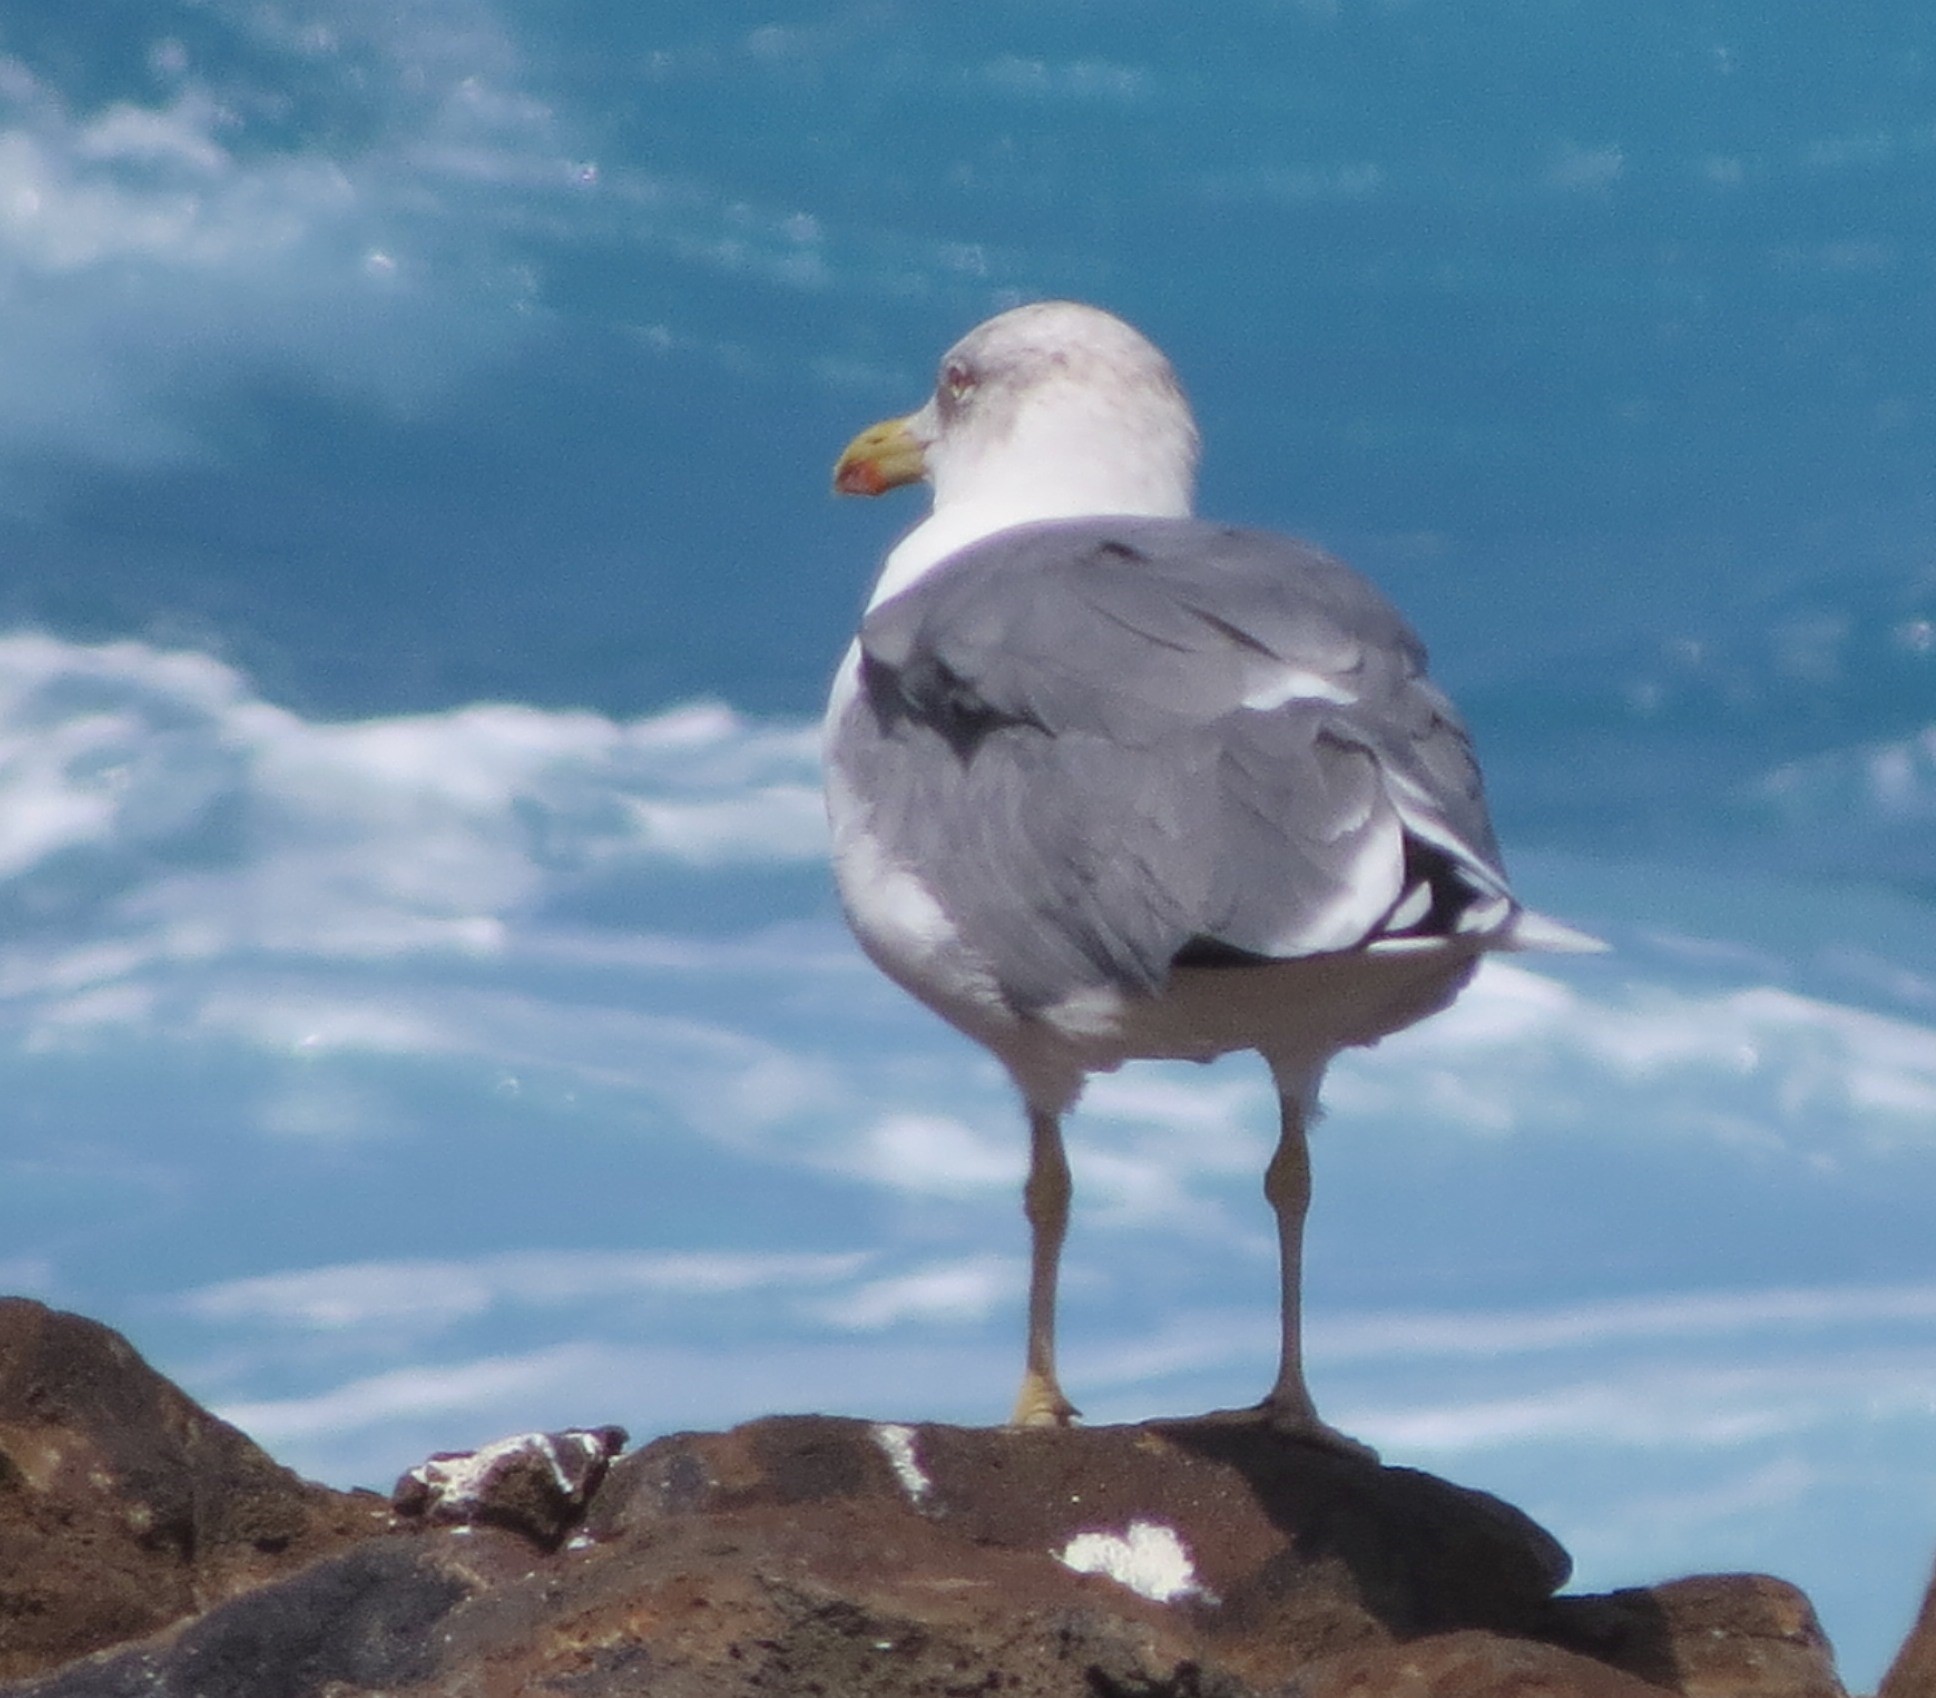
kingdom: Animalia
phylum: Chordata
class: Aves
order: Charadriiformes
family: Laridae
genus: Larus
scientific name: Larus michahellis
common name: Yellow-legged gull
